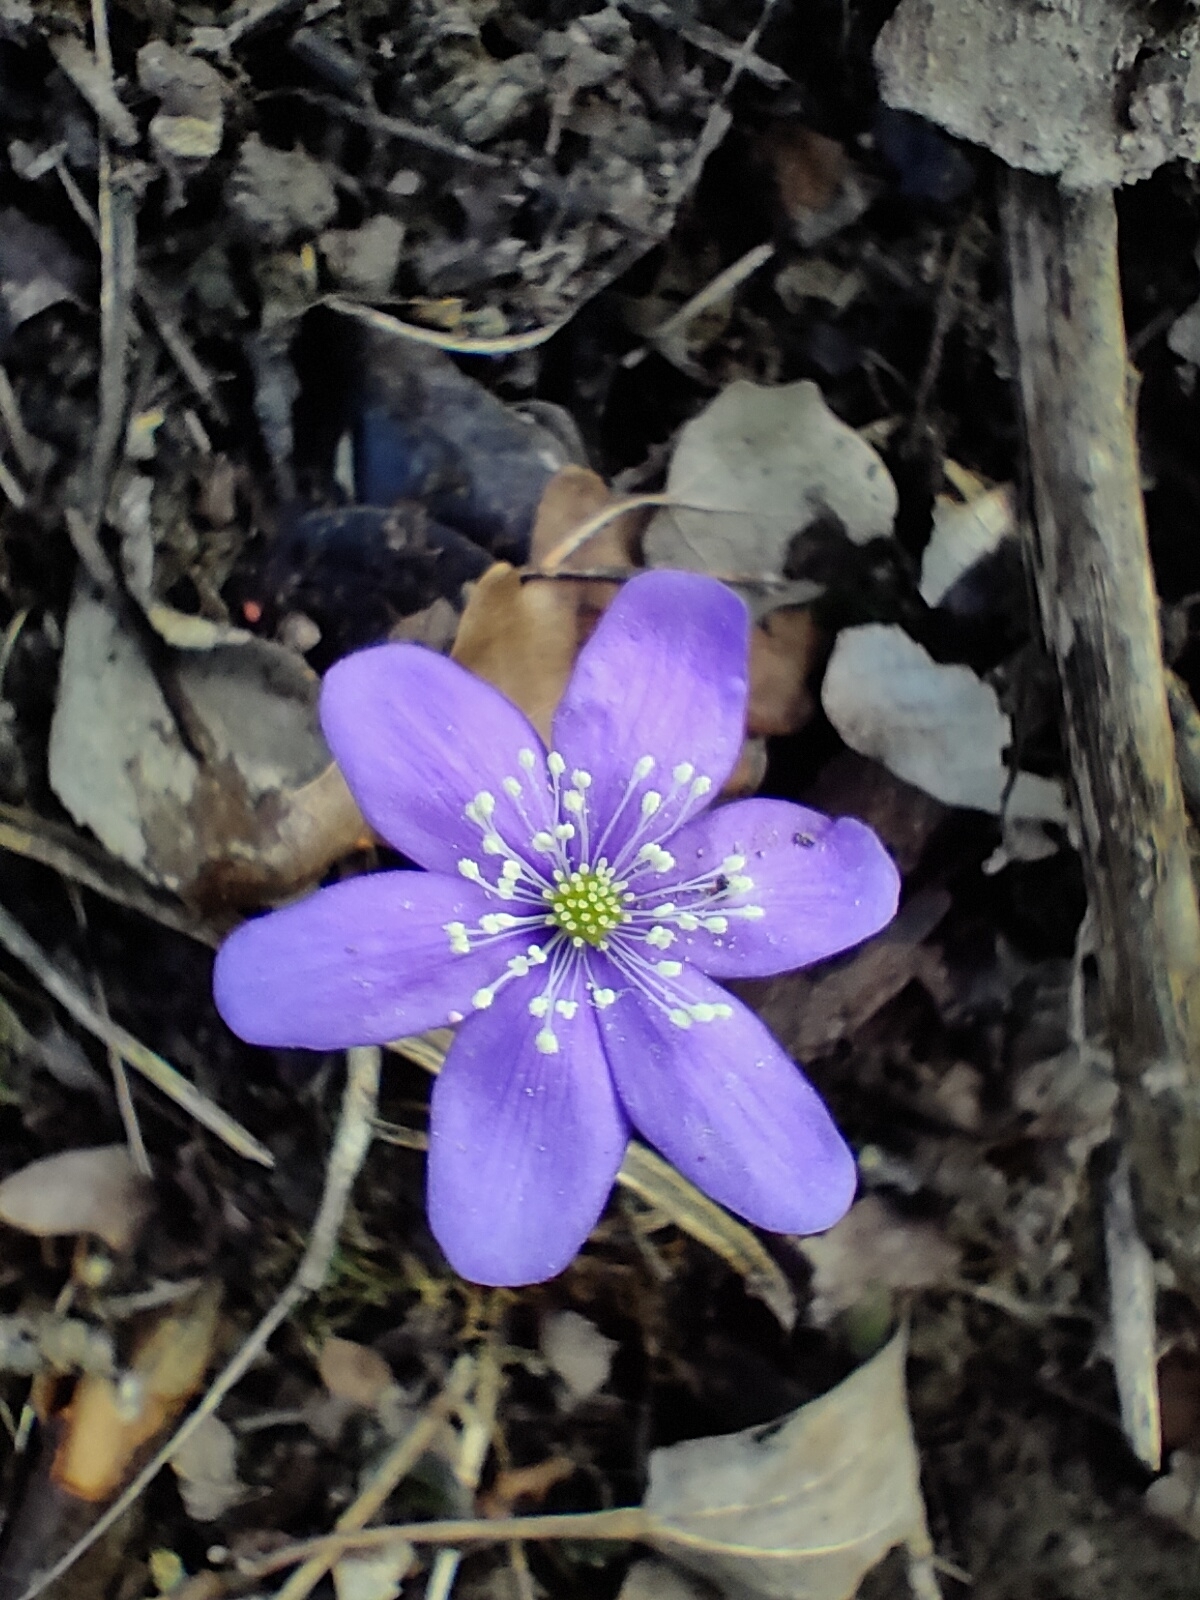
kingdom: Plantae
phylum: Tracheophyta
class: Magnoliopsida
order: Ranunculales
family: Ranunculaceae
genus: Hepatica
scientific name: Hepatica nobilis
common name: Liverleaf
